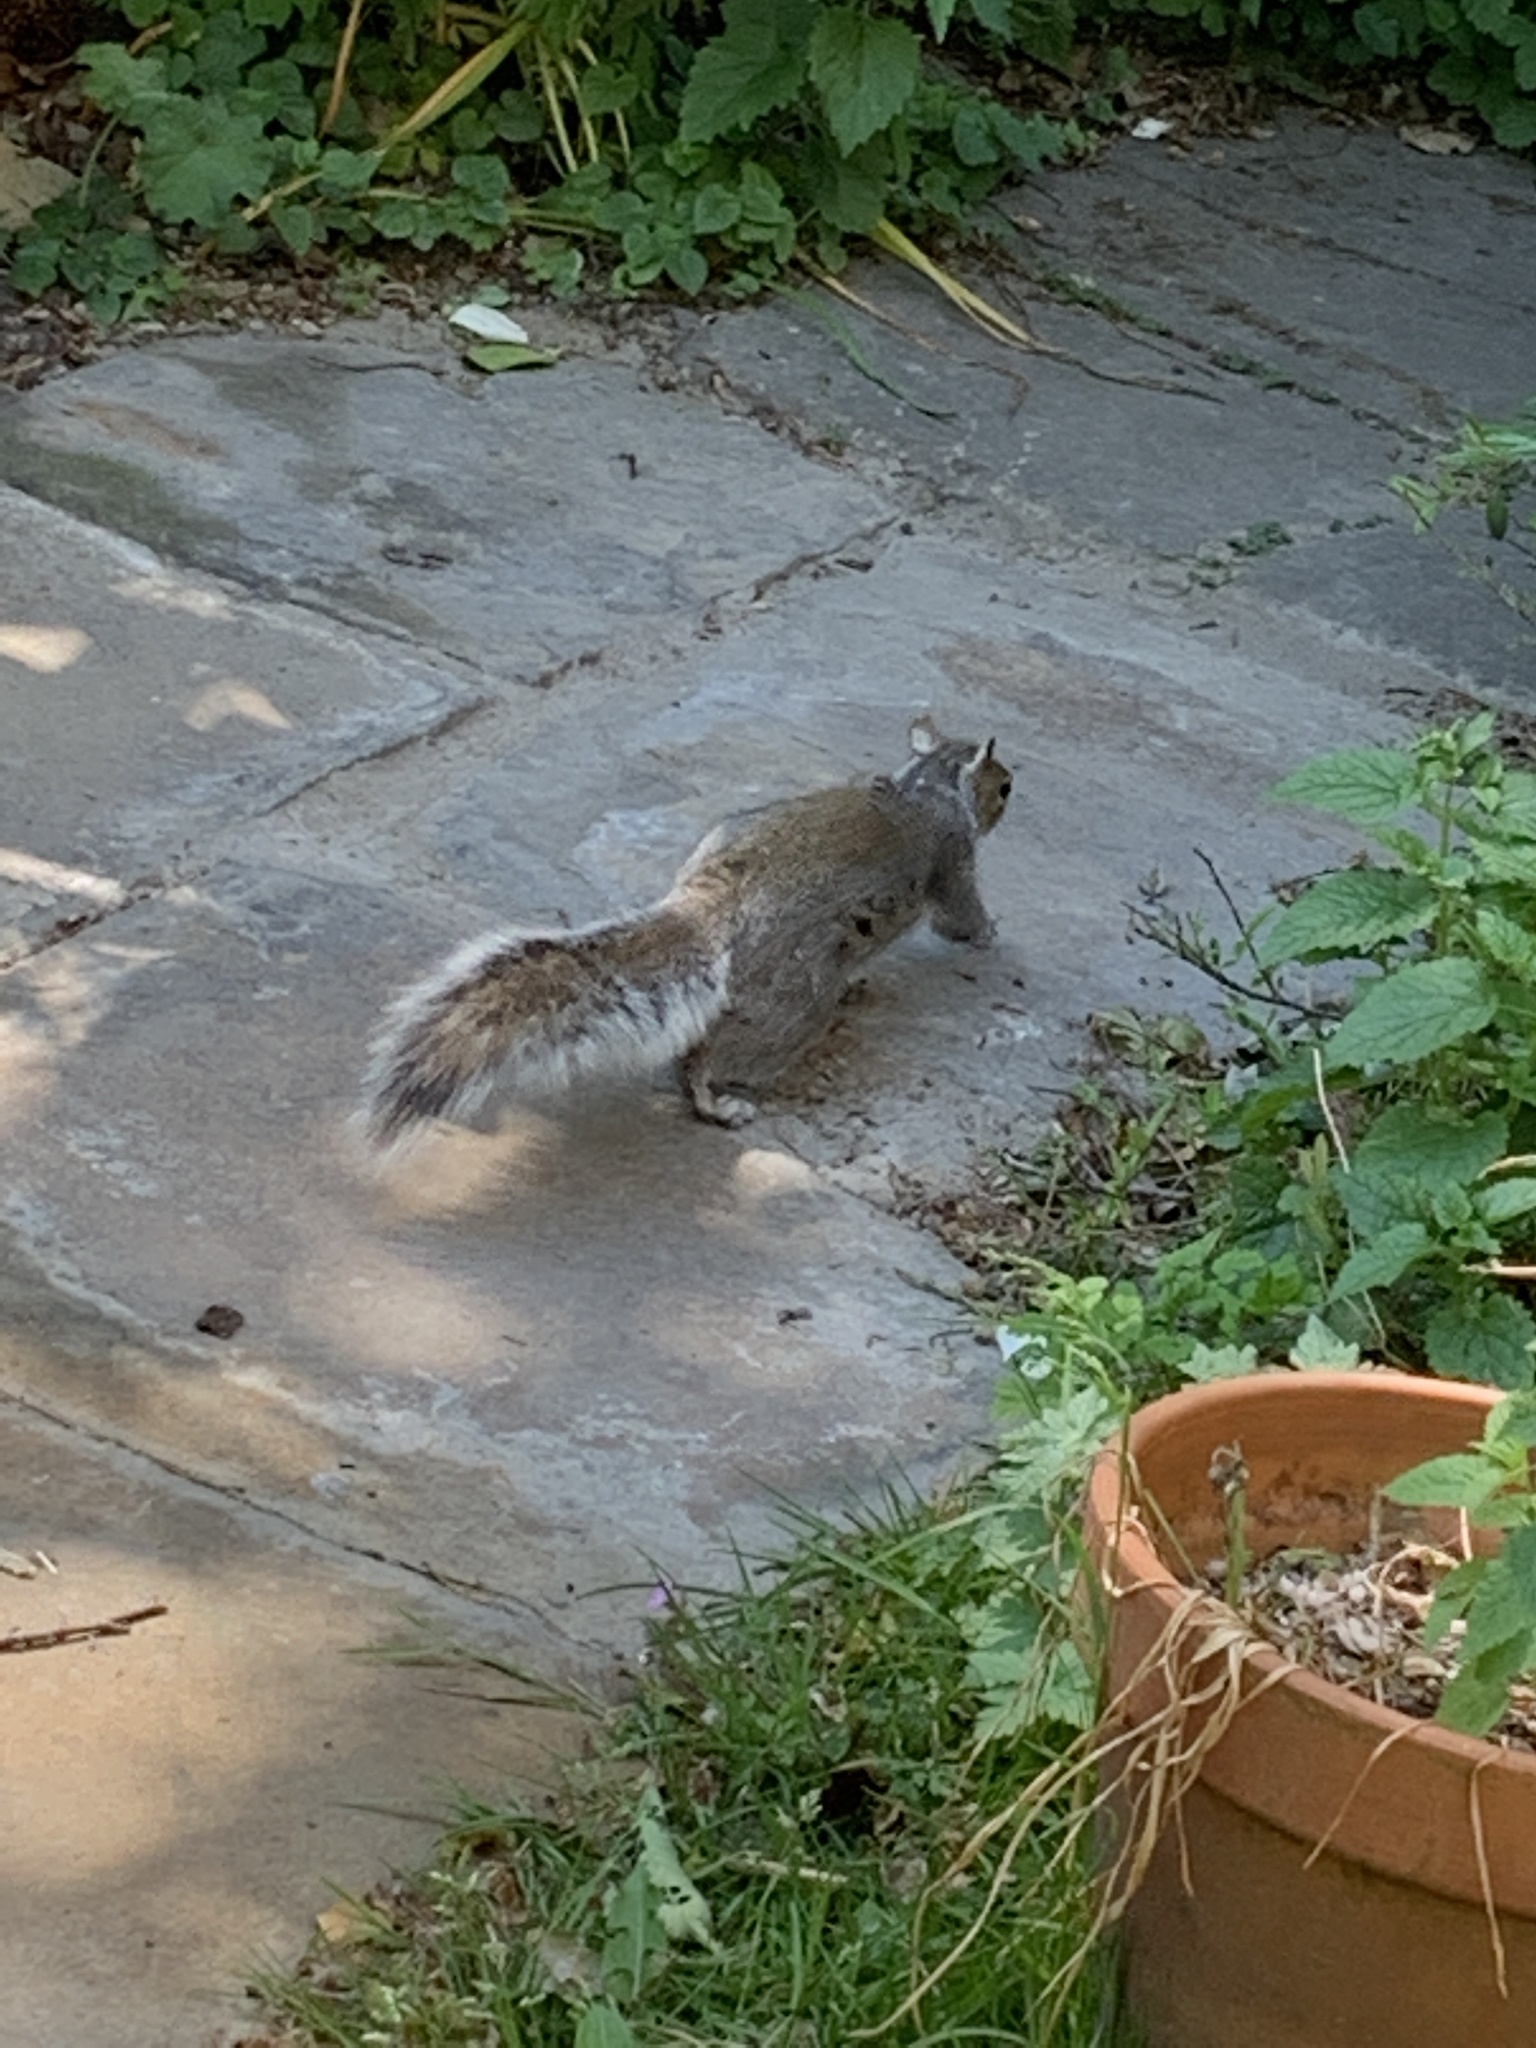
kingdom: Animalia
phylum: Chordata
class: Mammalia
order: Rodentia
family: Sciuridae
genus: Sciurus
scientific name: Sciurus carolinensis
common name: Eastern gray squirrel
